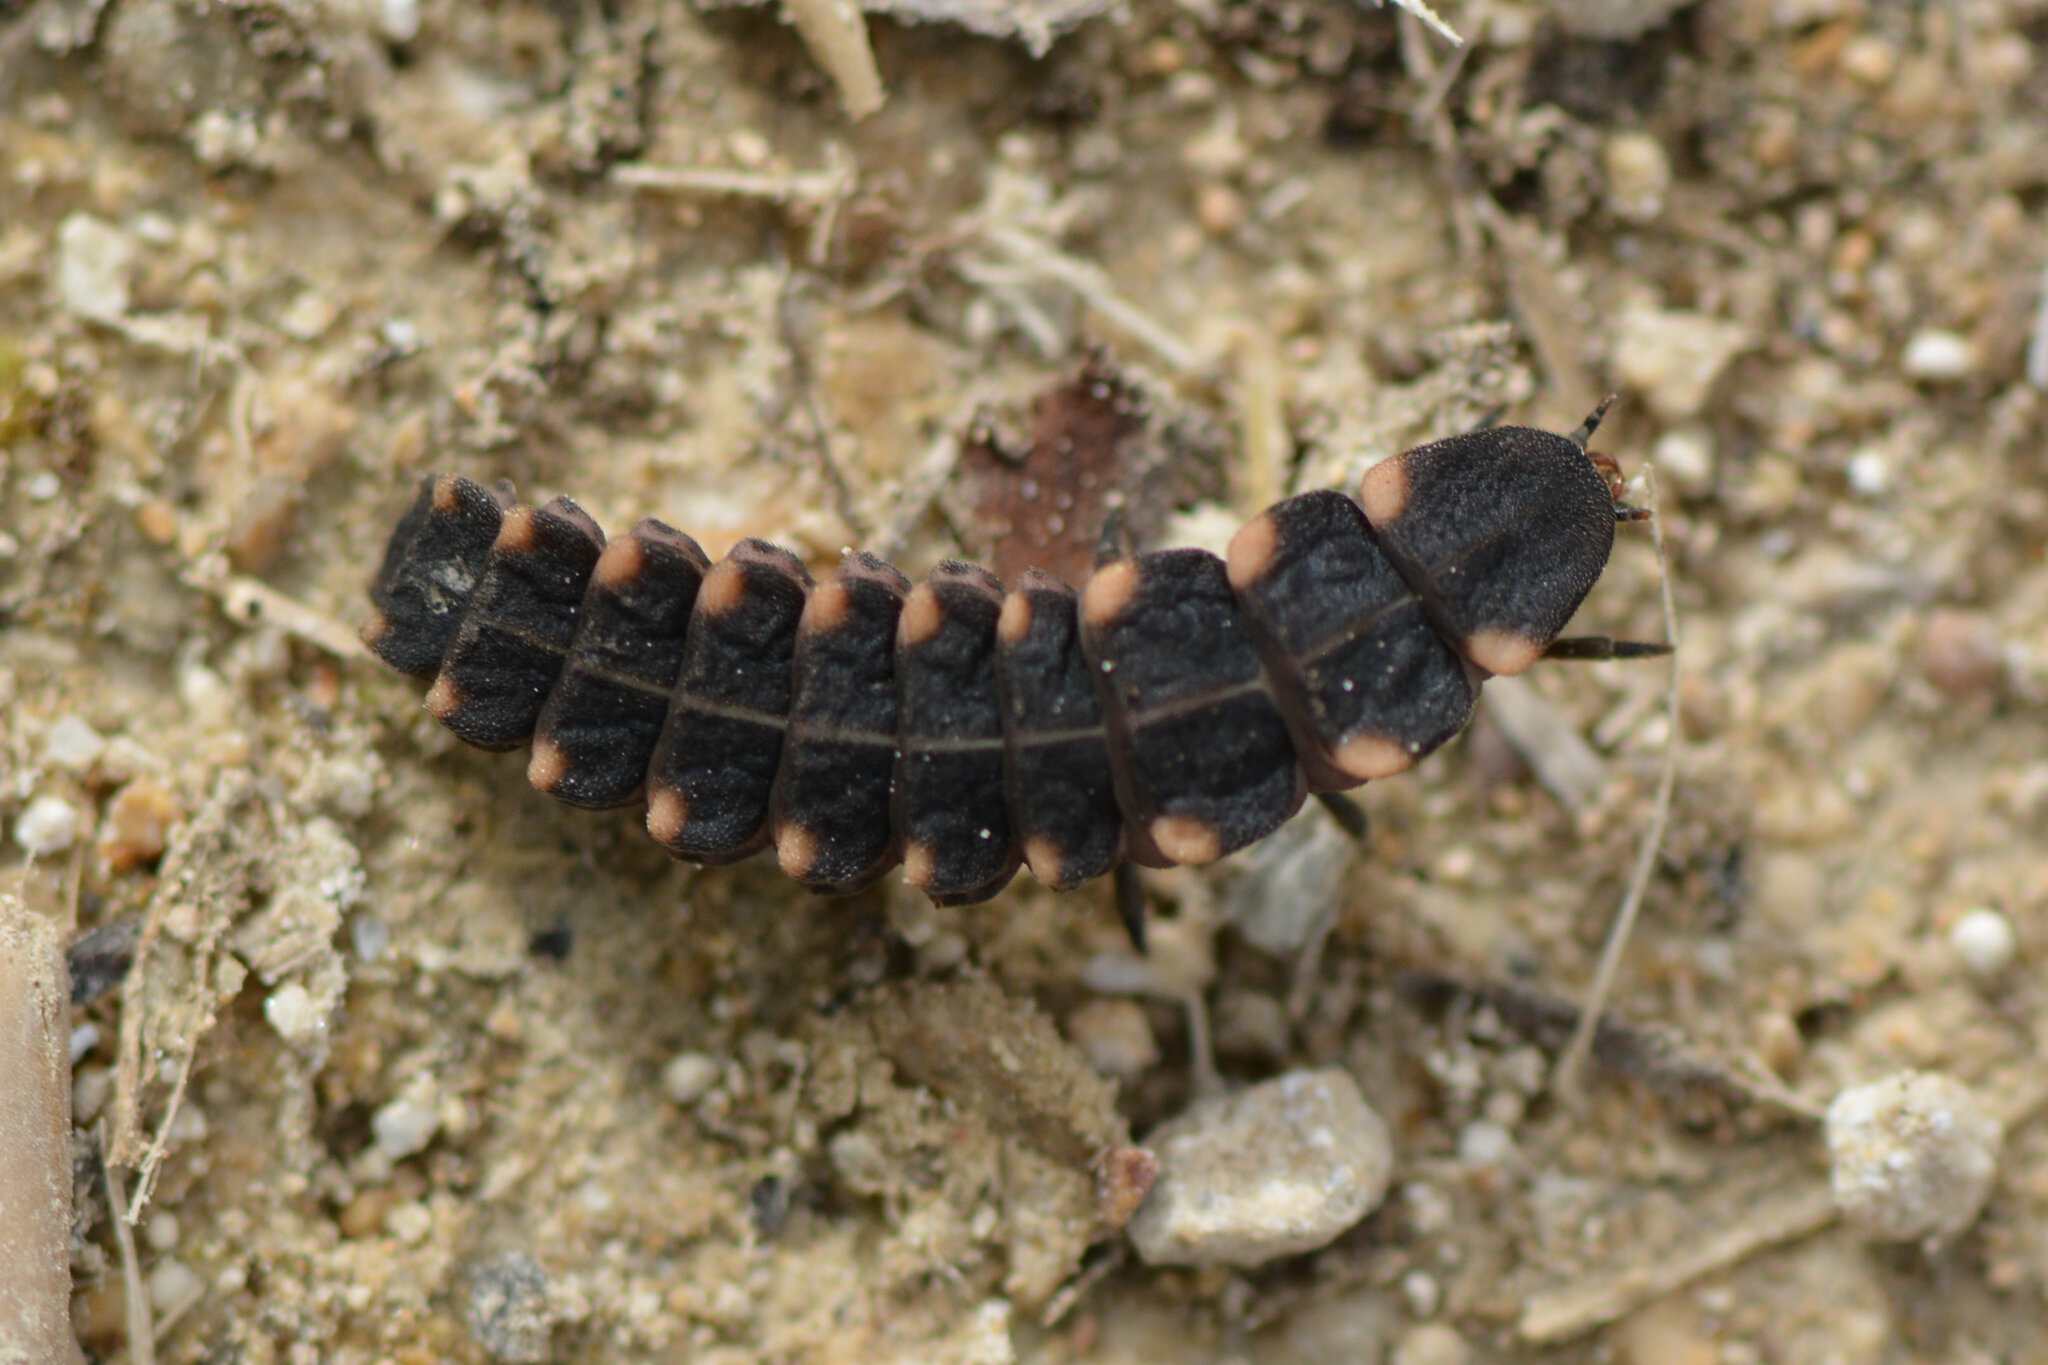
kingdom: Animalia
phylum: Arthropoda
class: Insecta
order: Coleoptera
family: Lampyridae
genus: Lampyris
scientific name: Lampyris noctiluca
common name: Glow-worm
